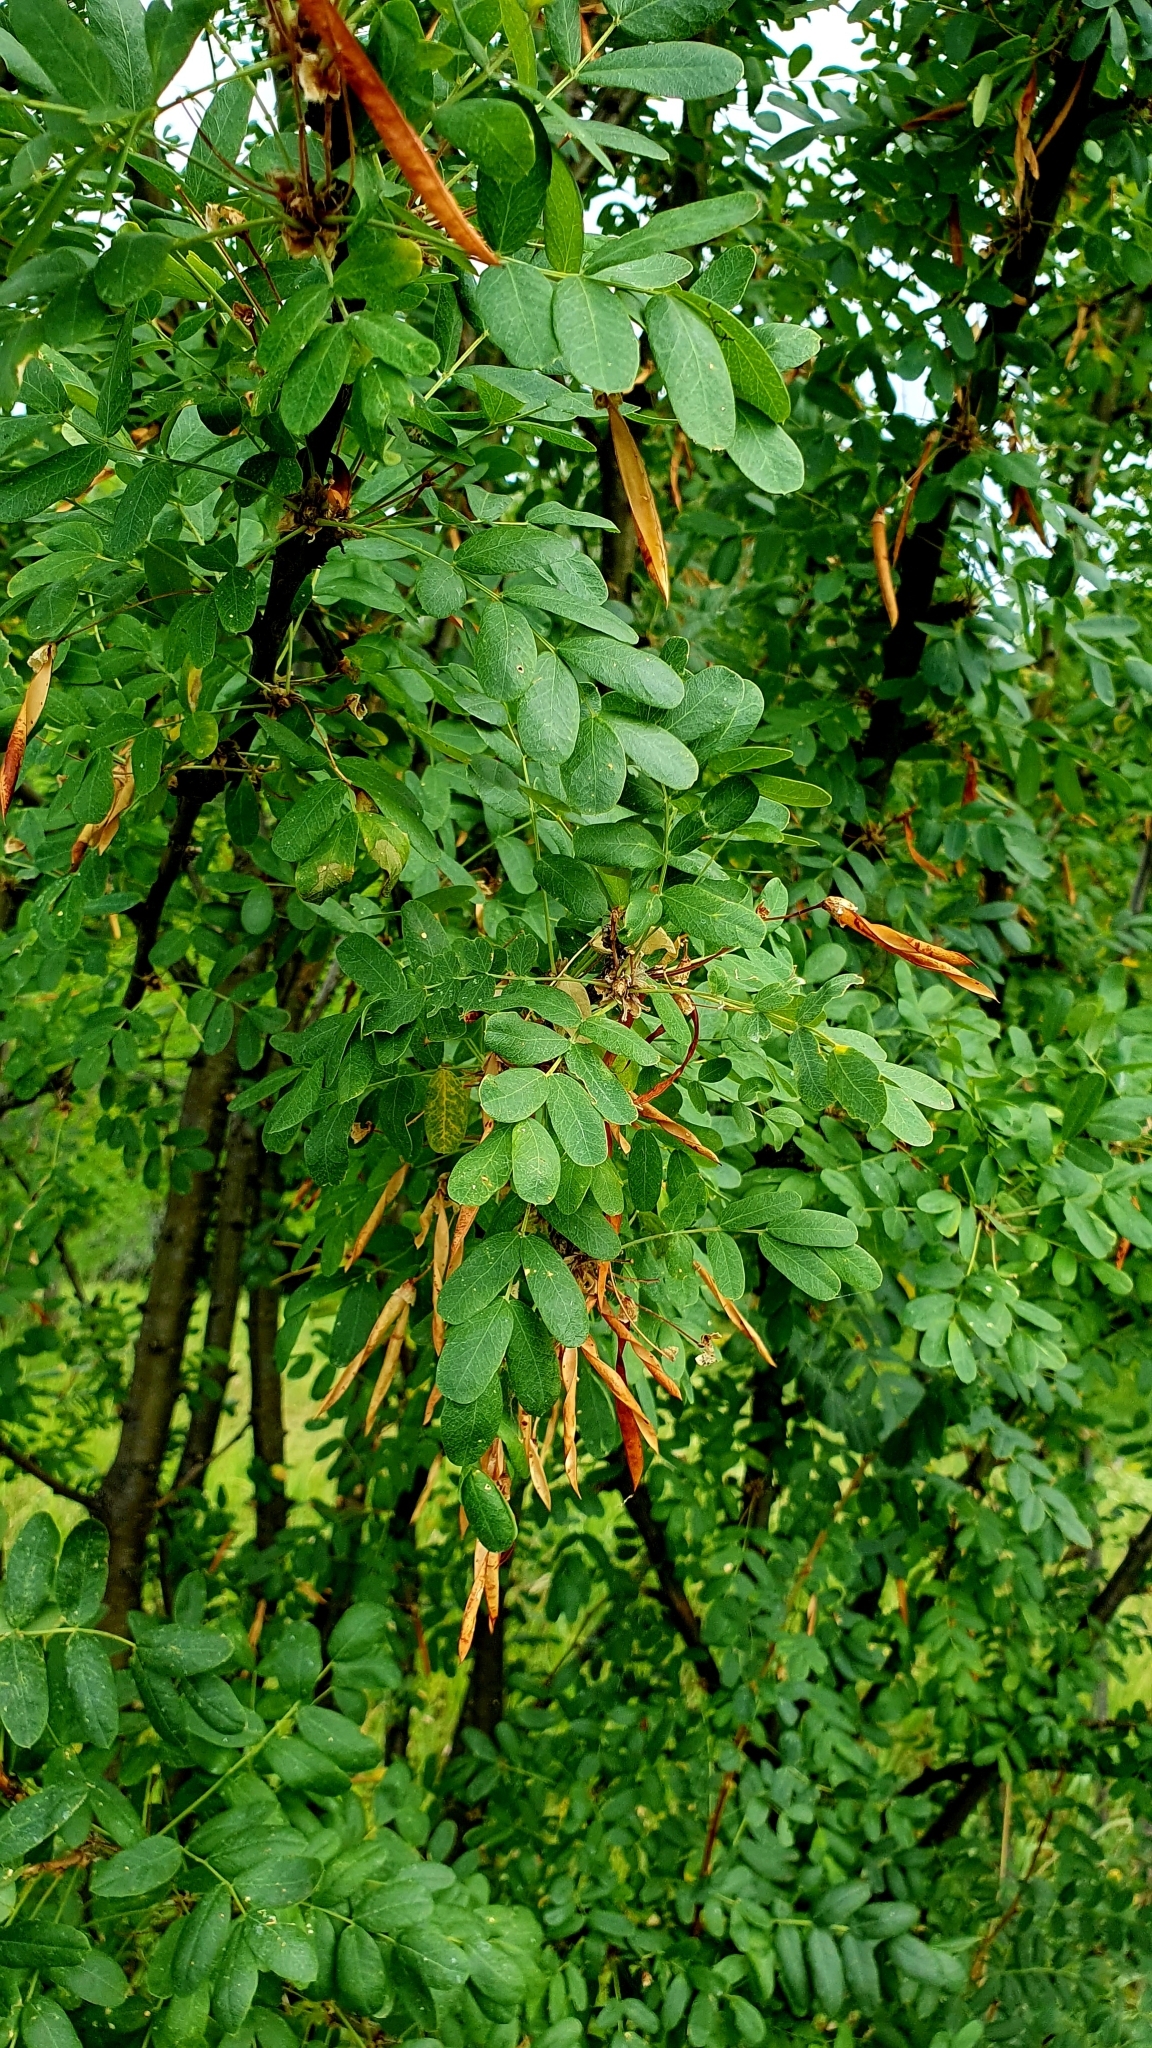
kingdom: Plantae
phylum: Tracheophyta
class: Magnoliopsida
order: Fabales
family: Fabaceae
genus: Caragana
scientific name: Caragana arborescens
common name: Siberian peashrub
